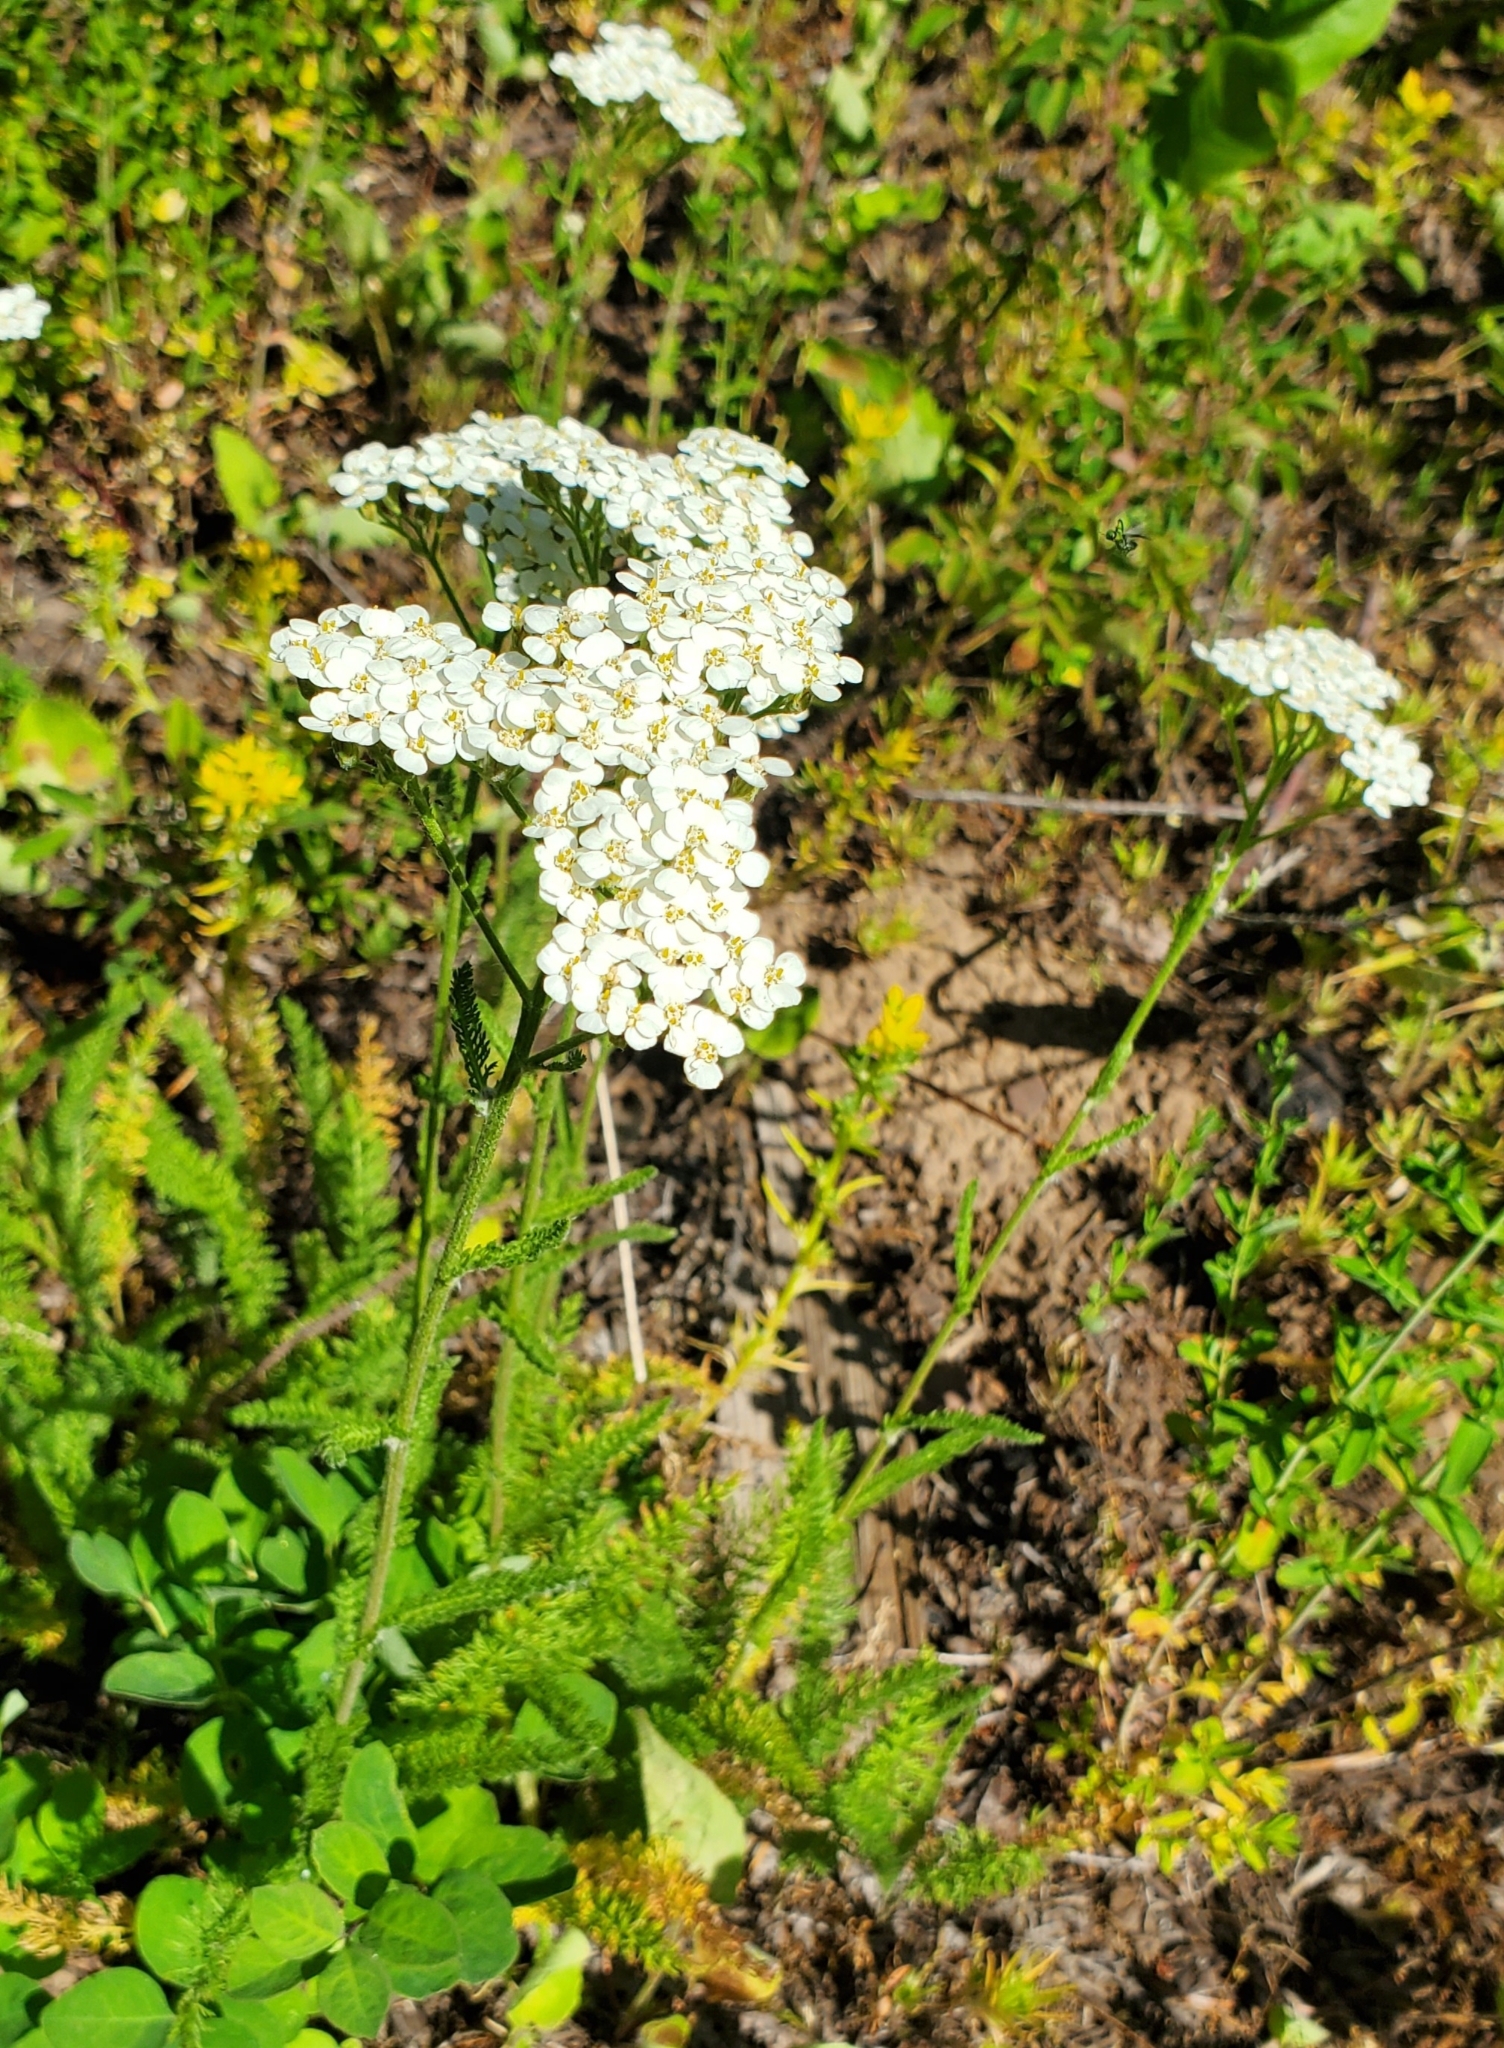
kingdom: Plantae
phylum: Tracheophyta
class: Magnoliopsida
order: Asterales
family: Asteraceae
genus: Achillea
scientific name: Achillea millefolium
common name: Yarrow
